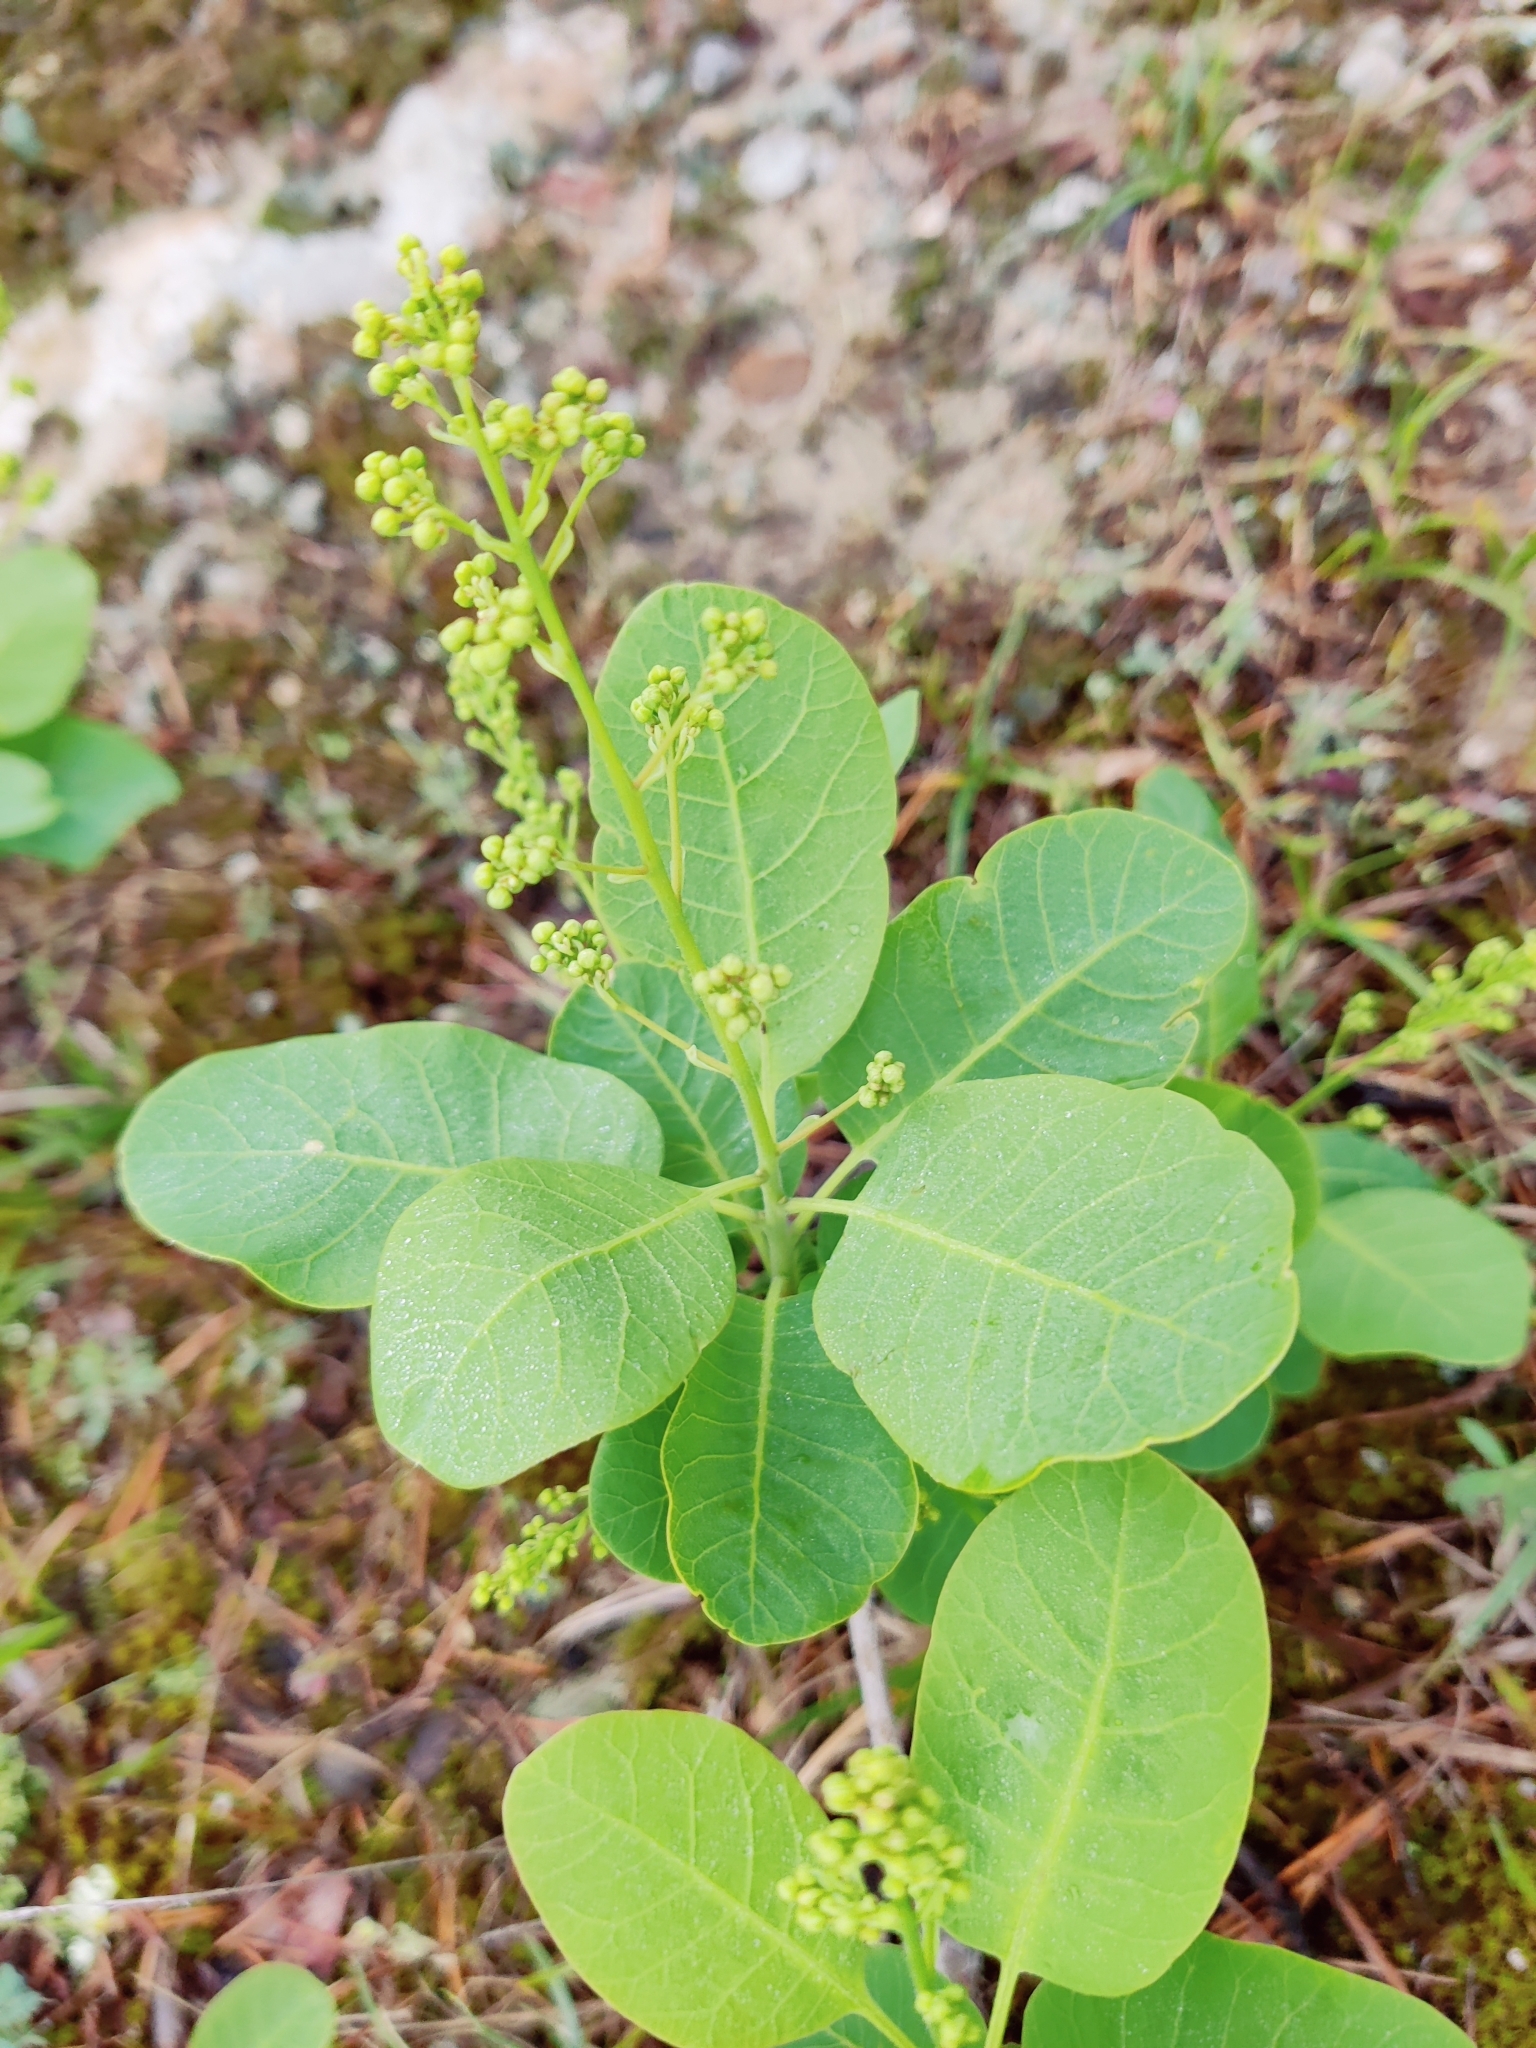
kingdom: Plantae
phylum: Tracheophyta
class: Magnoliopsida
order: Sapindales
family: Anacardiaceae
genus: Cotinus
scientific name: Cotinus coggygria
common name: Smoke-tree
